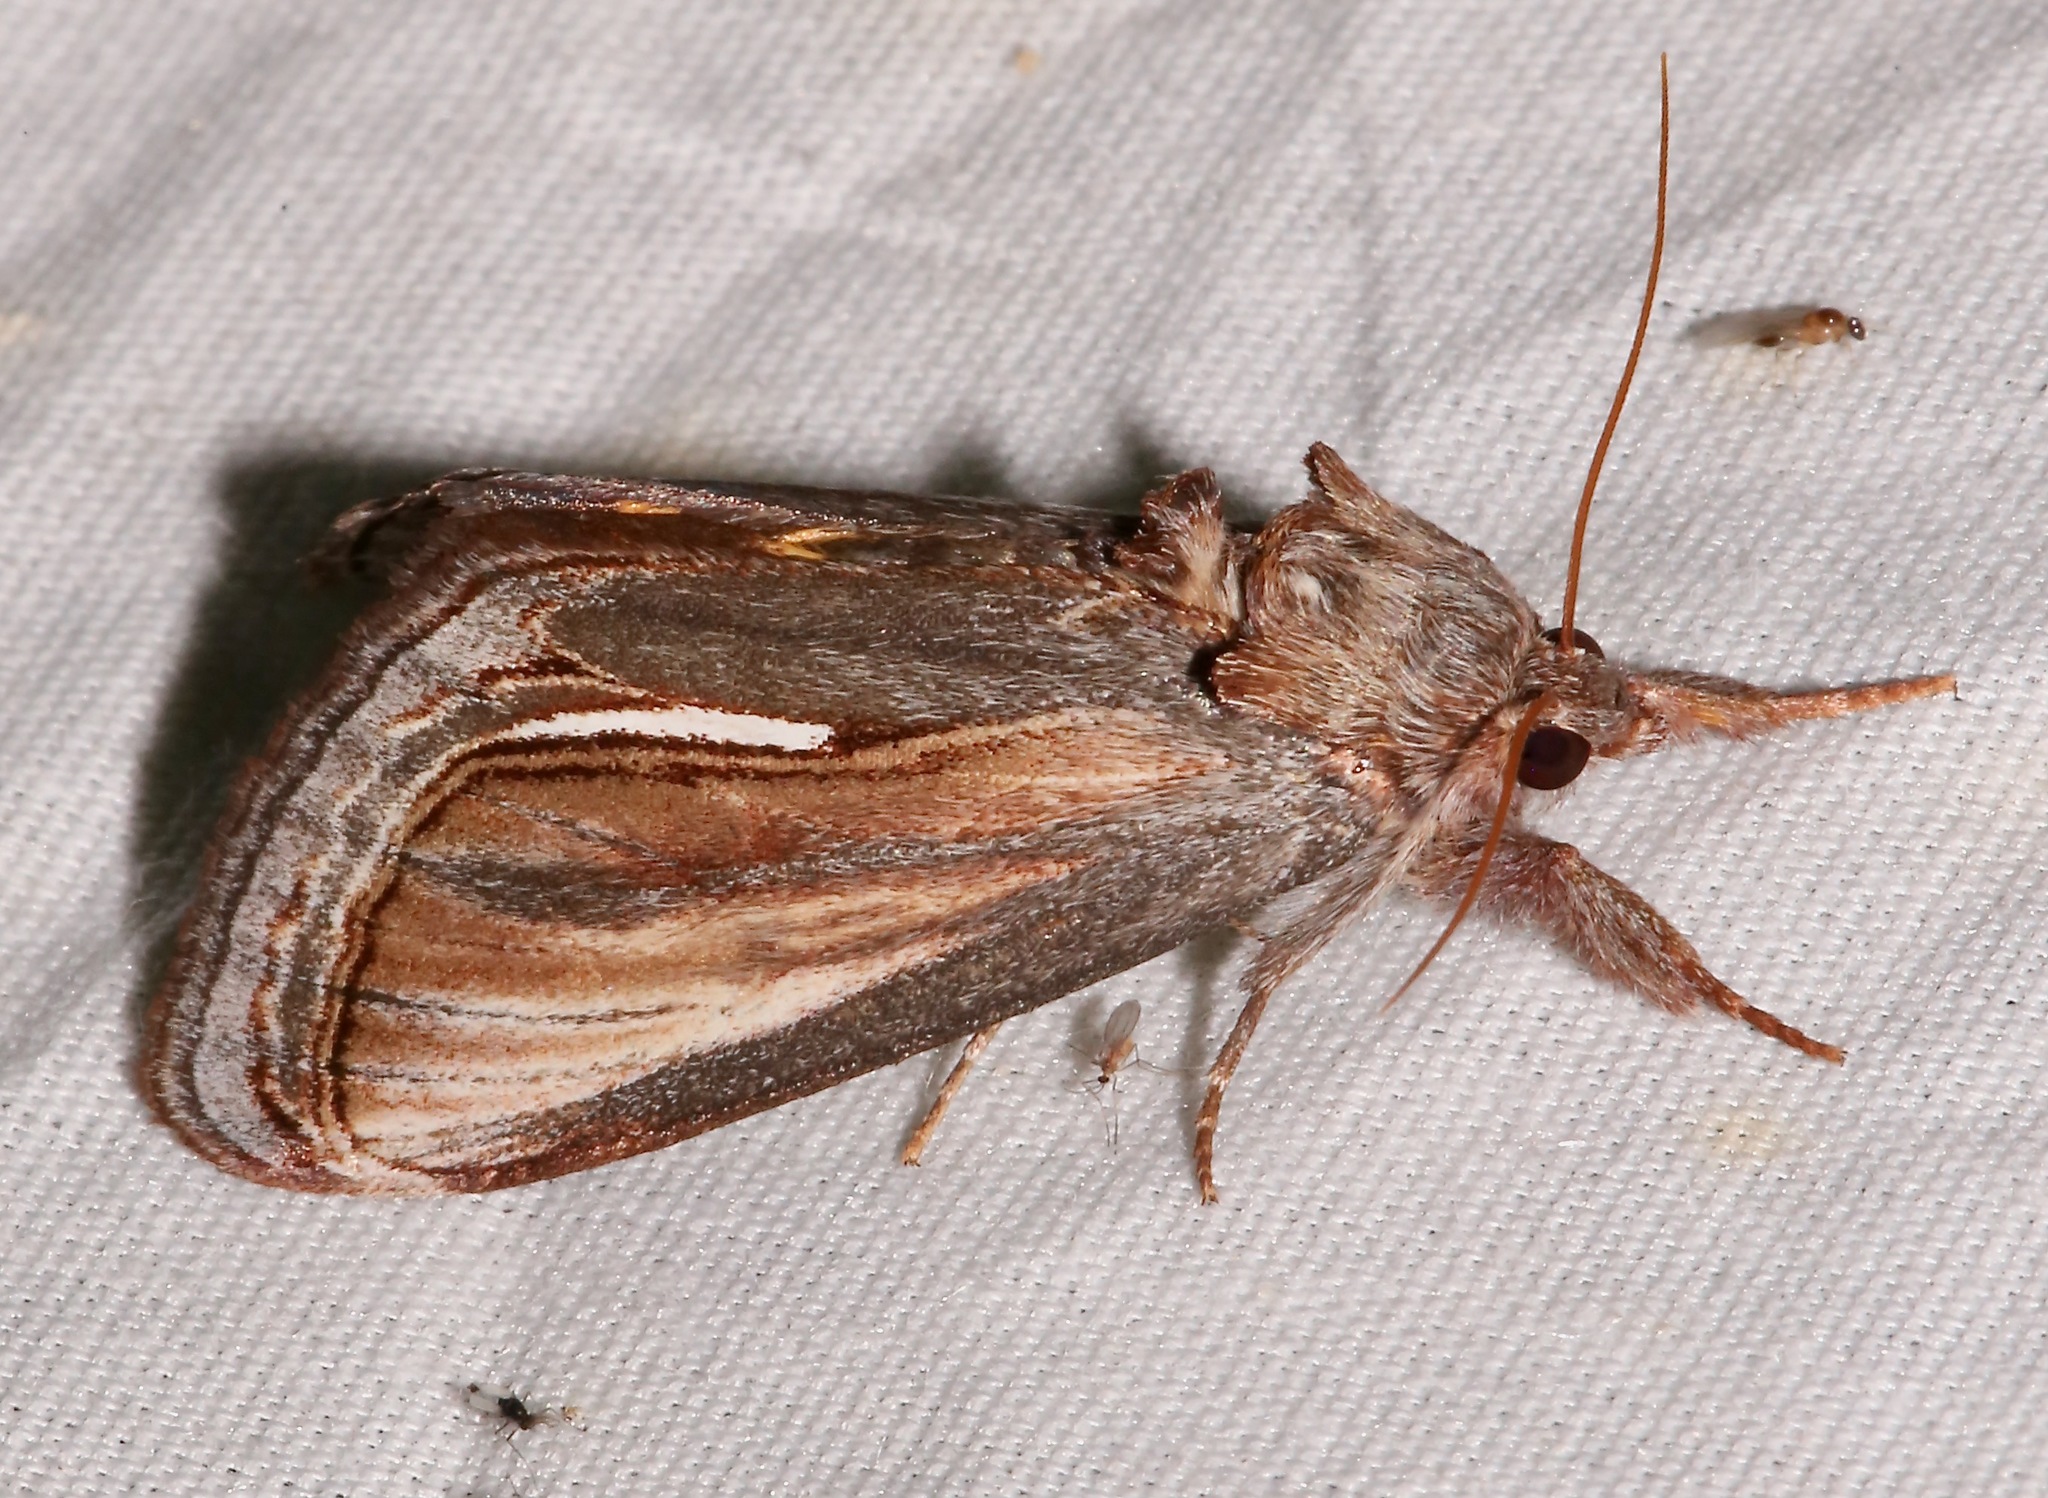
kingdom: Animalia
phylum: Arthropoda
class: Insecta
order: Lepidoptera
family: Noctuidae
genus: Gerrodes
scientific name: Gerrodes minatea
